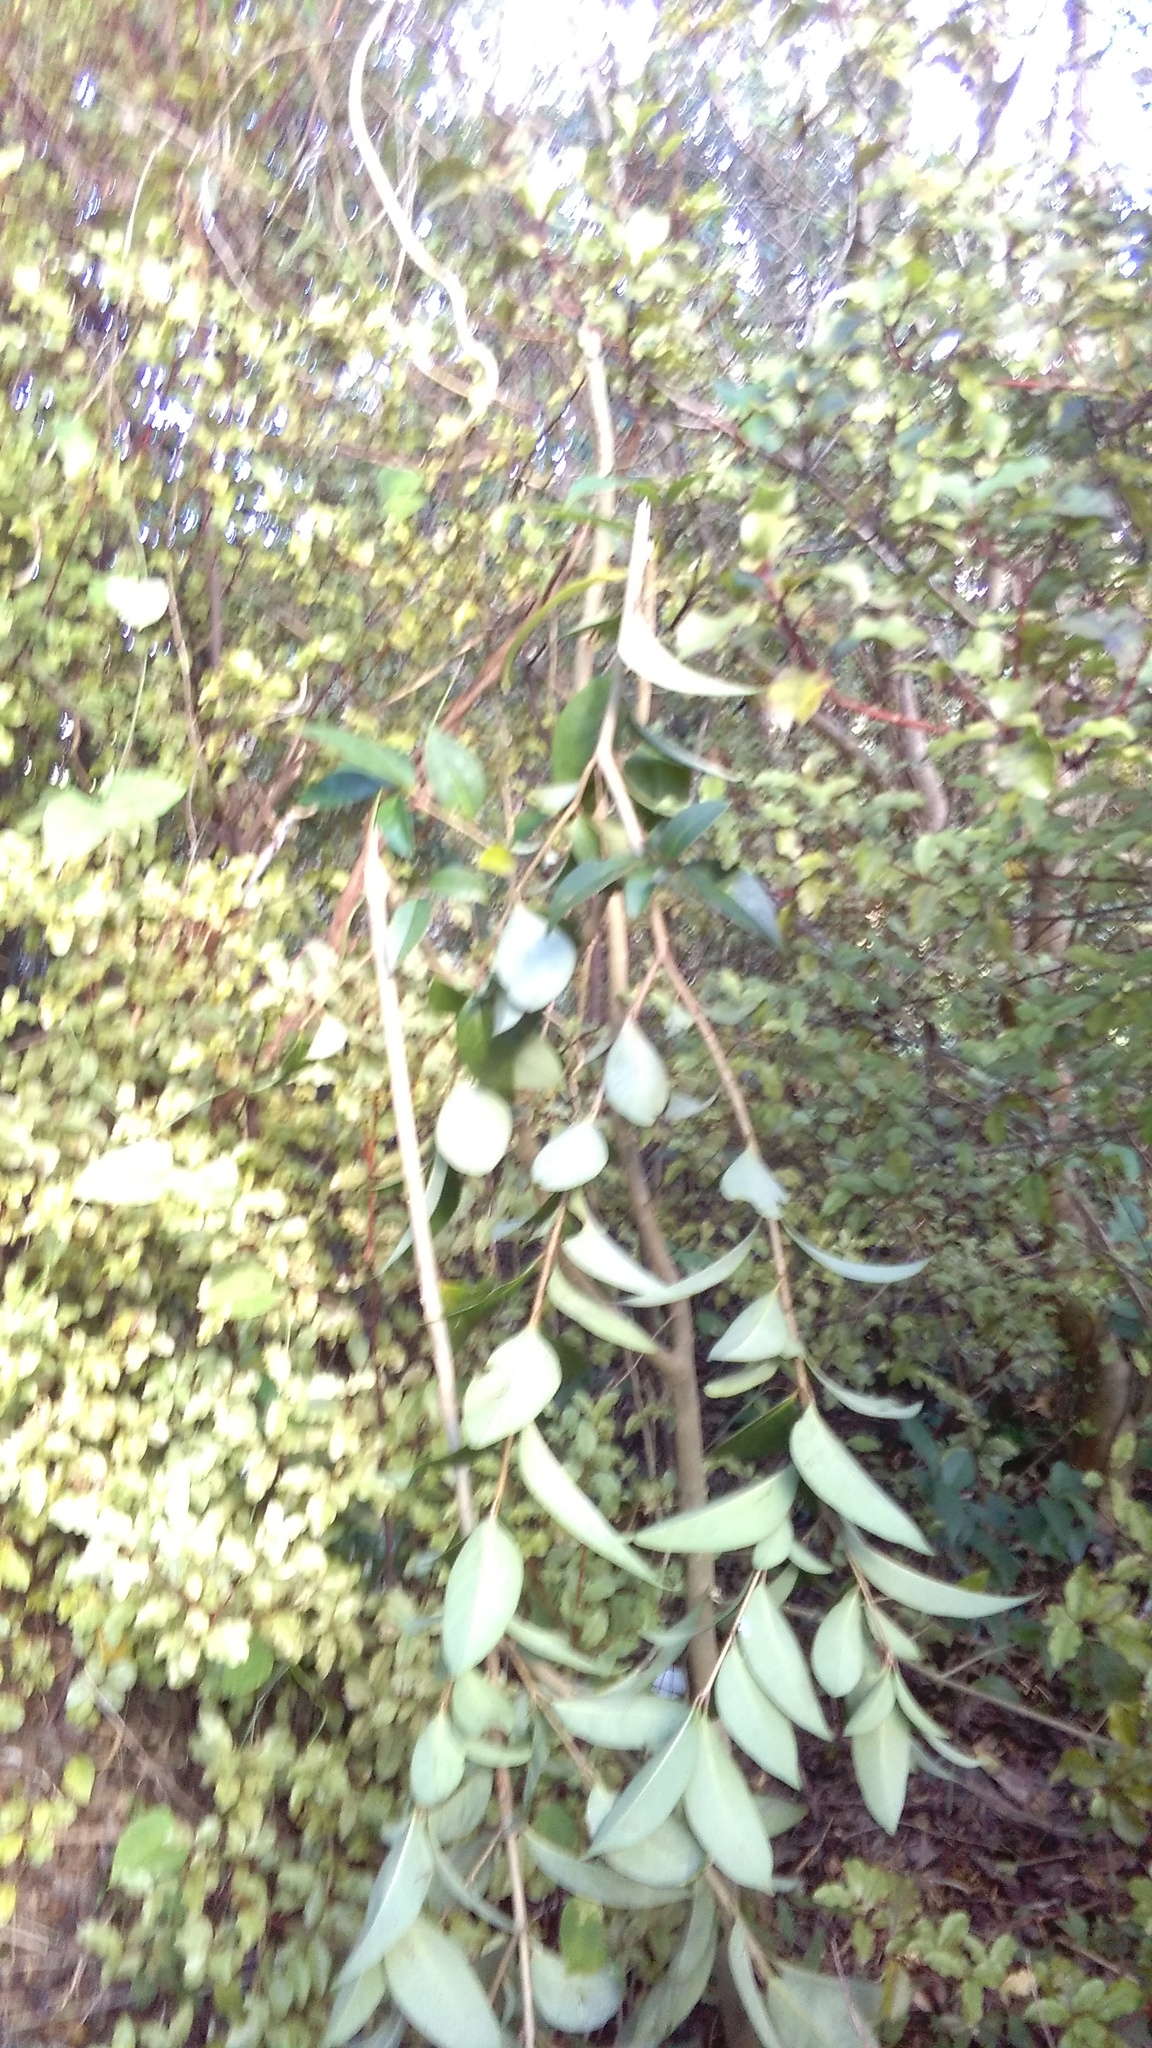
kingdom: Plantae
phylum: Tracheophyta
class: Magnoliopsida
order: Lamiales
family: Oleaceae
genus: Ligustrum
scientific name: Ligustrum lucidum
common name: Glossy privet
